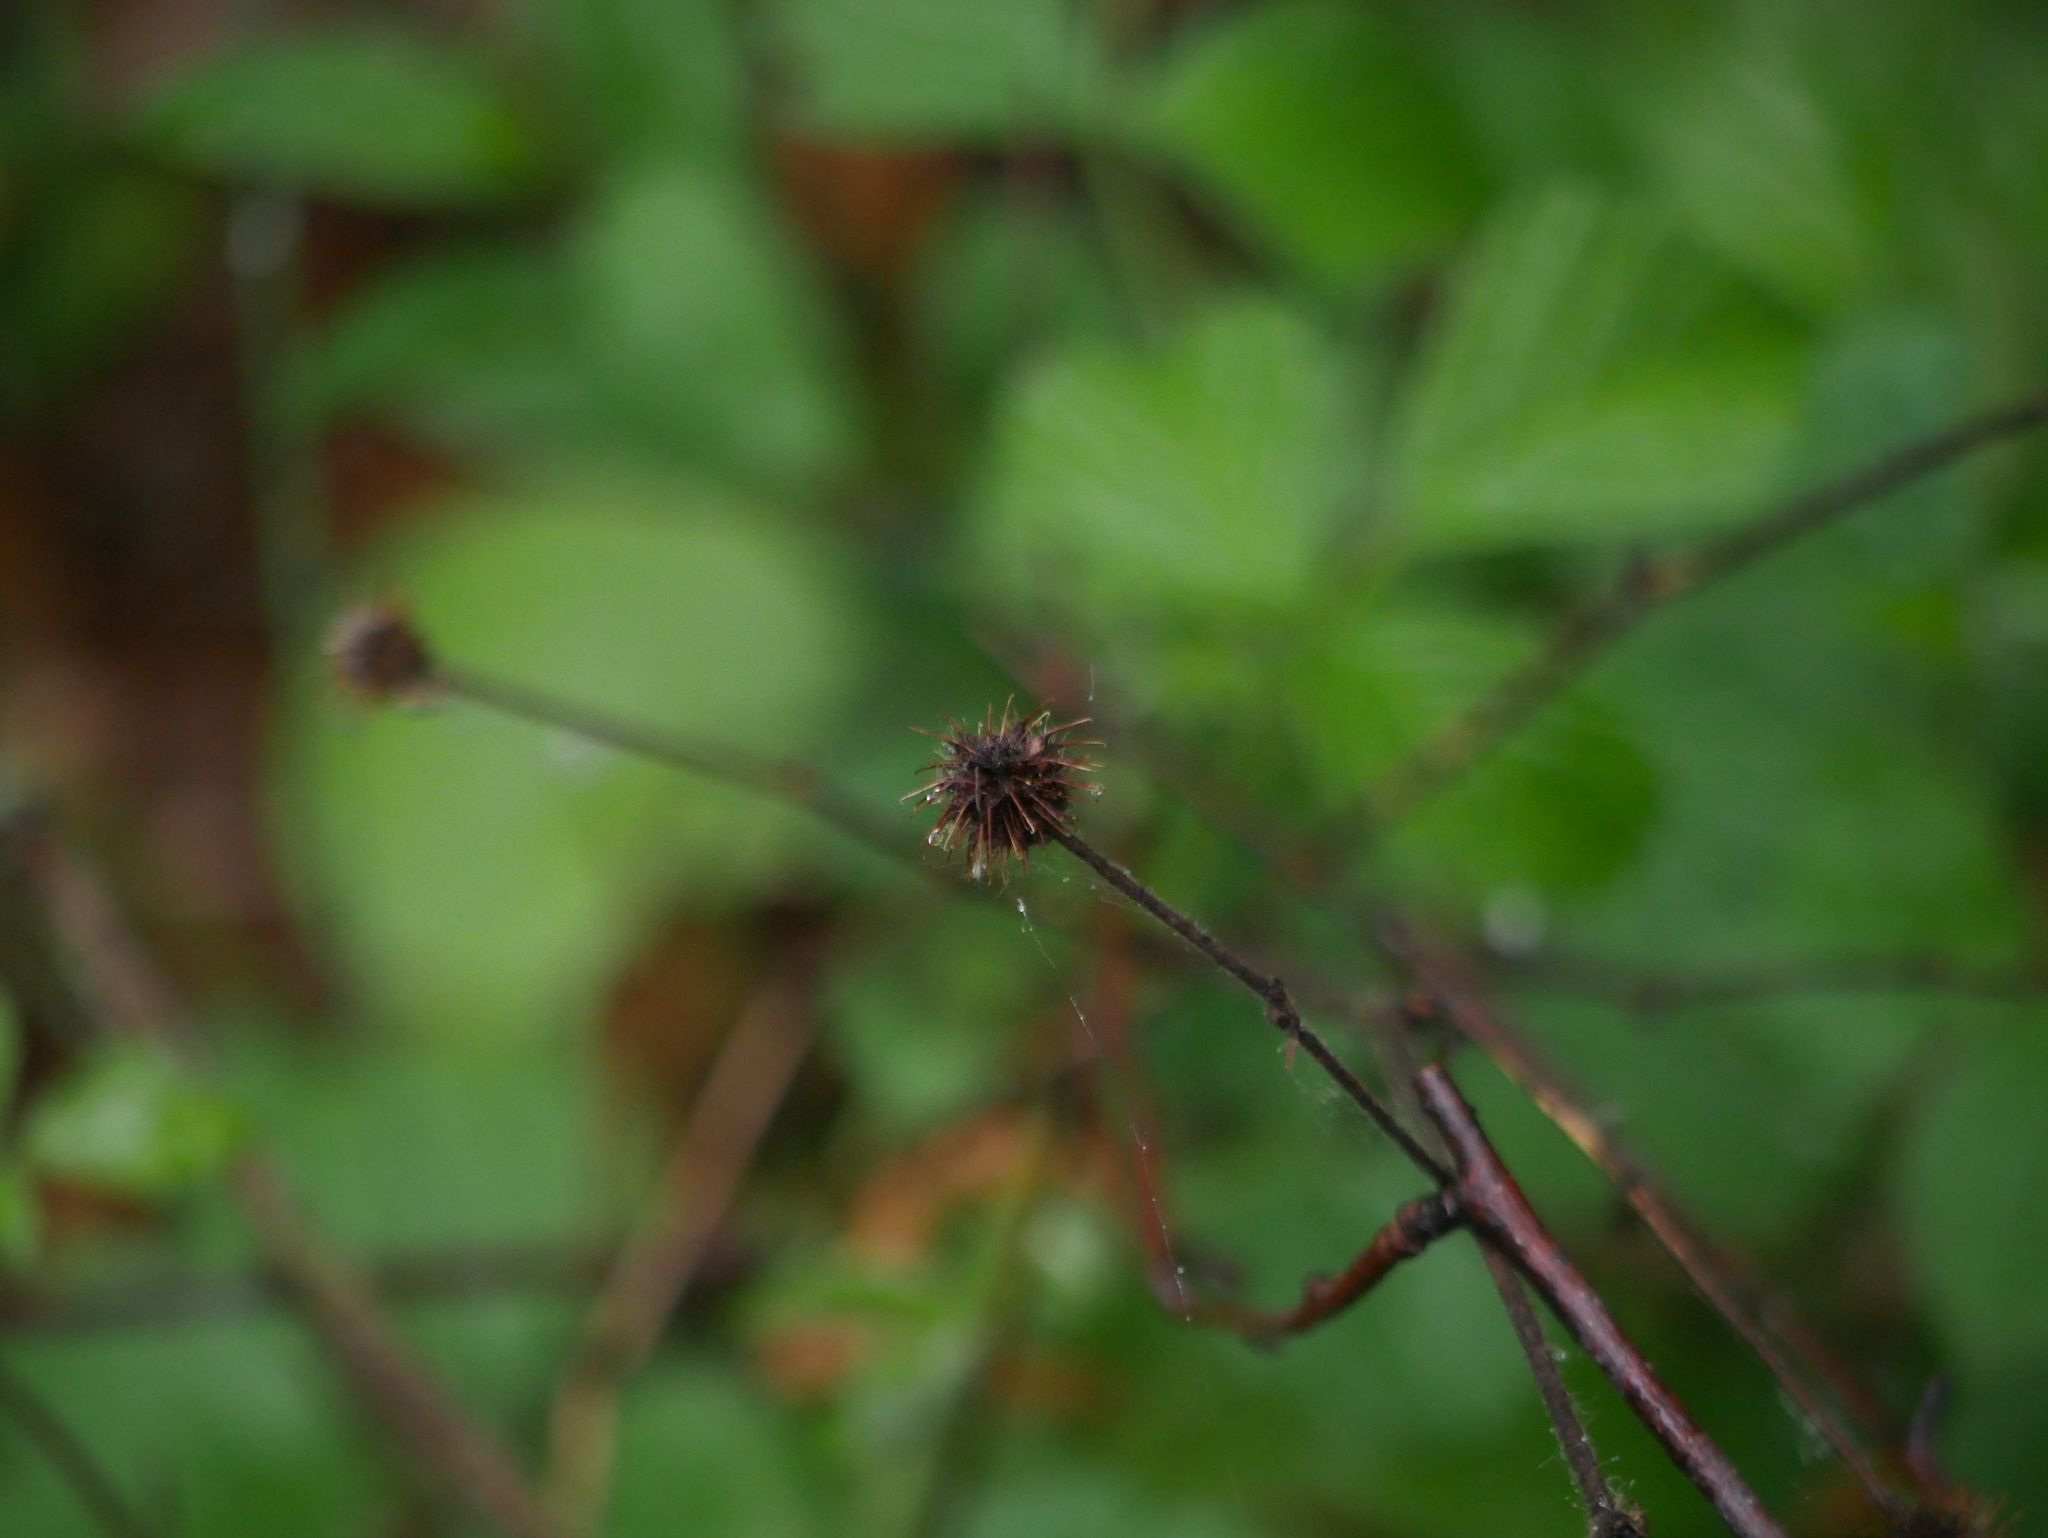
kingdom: Plantae
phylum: Tracheophyta
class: Magnoliopsida
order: Rosales
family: Rosaceae
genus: Geum
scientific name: Geum urbanum
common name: Wood avens
